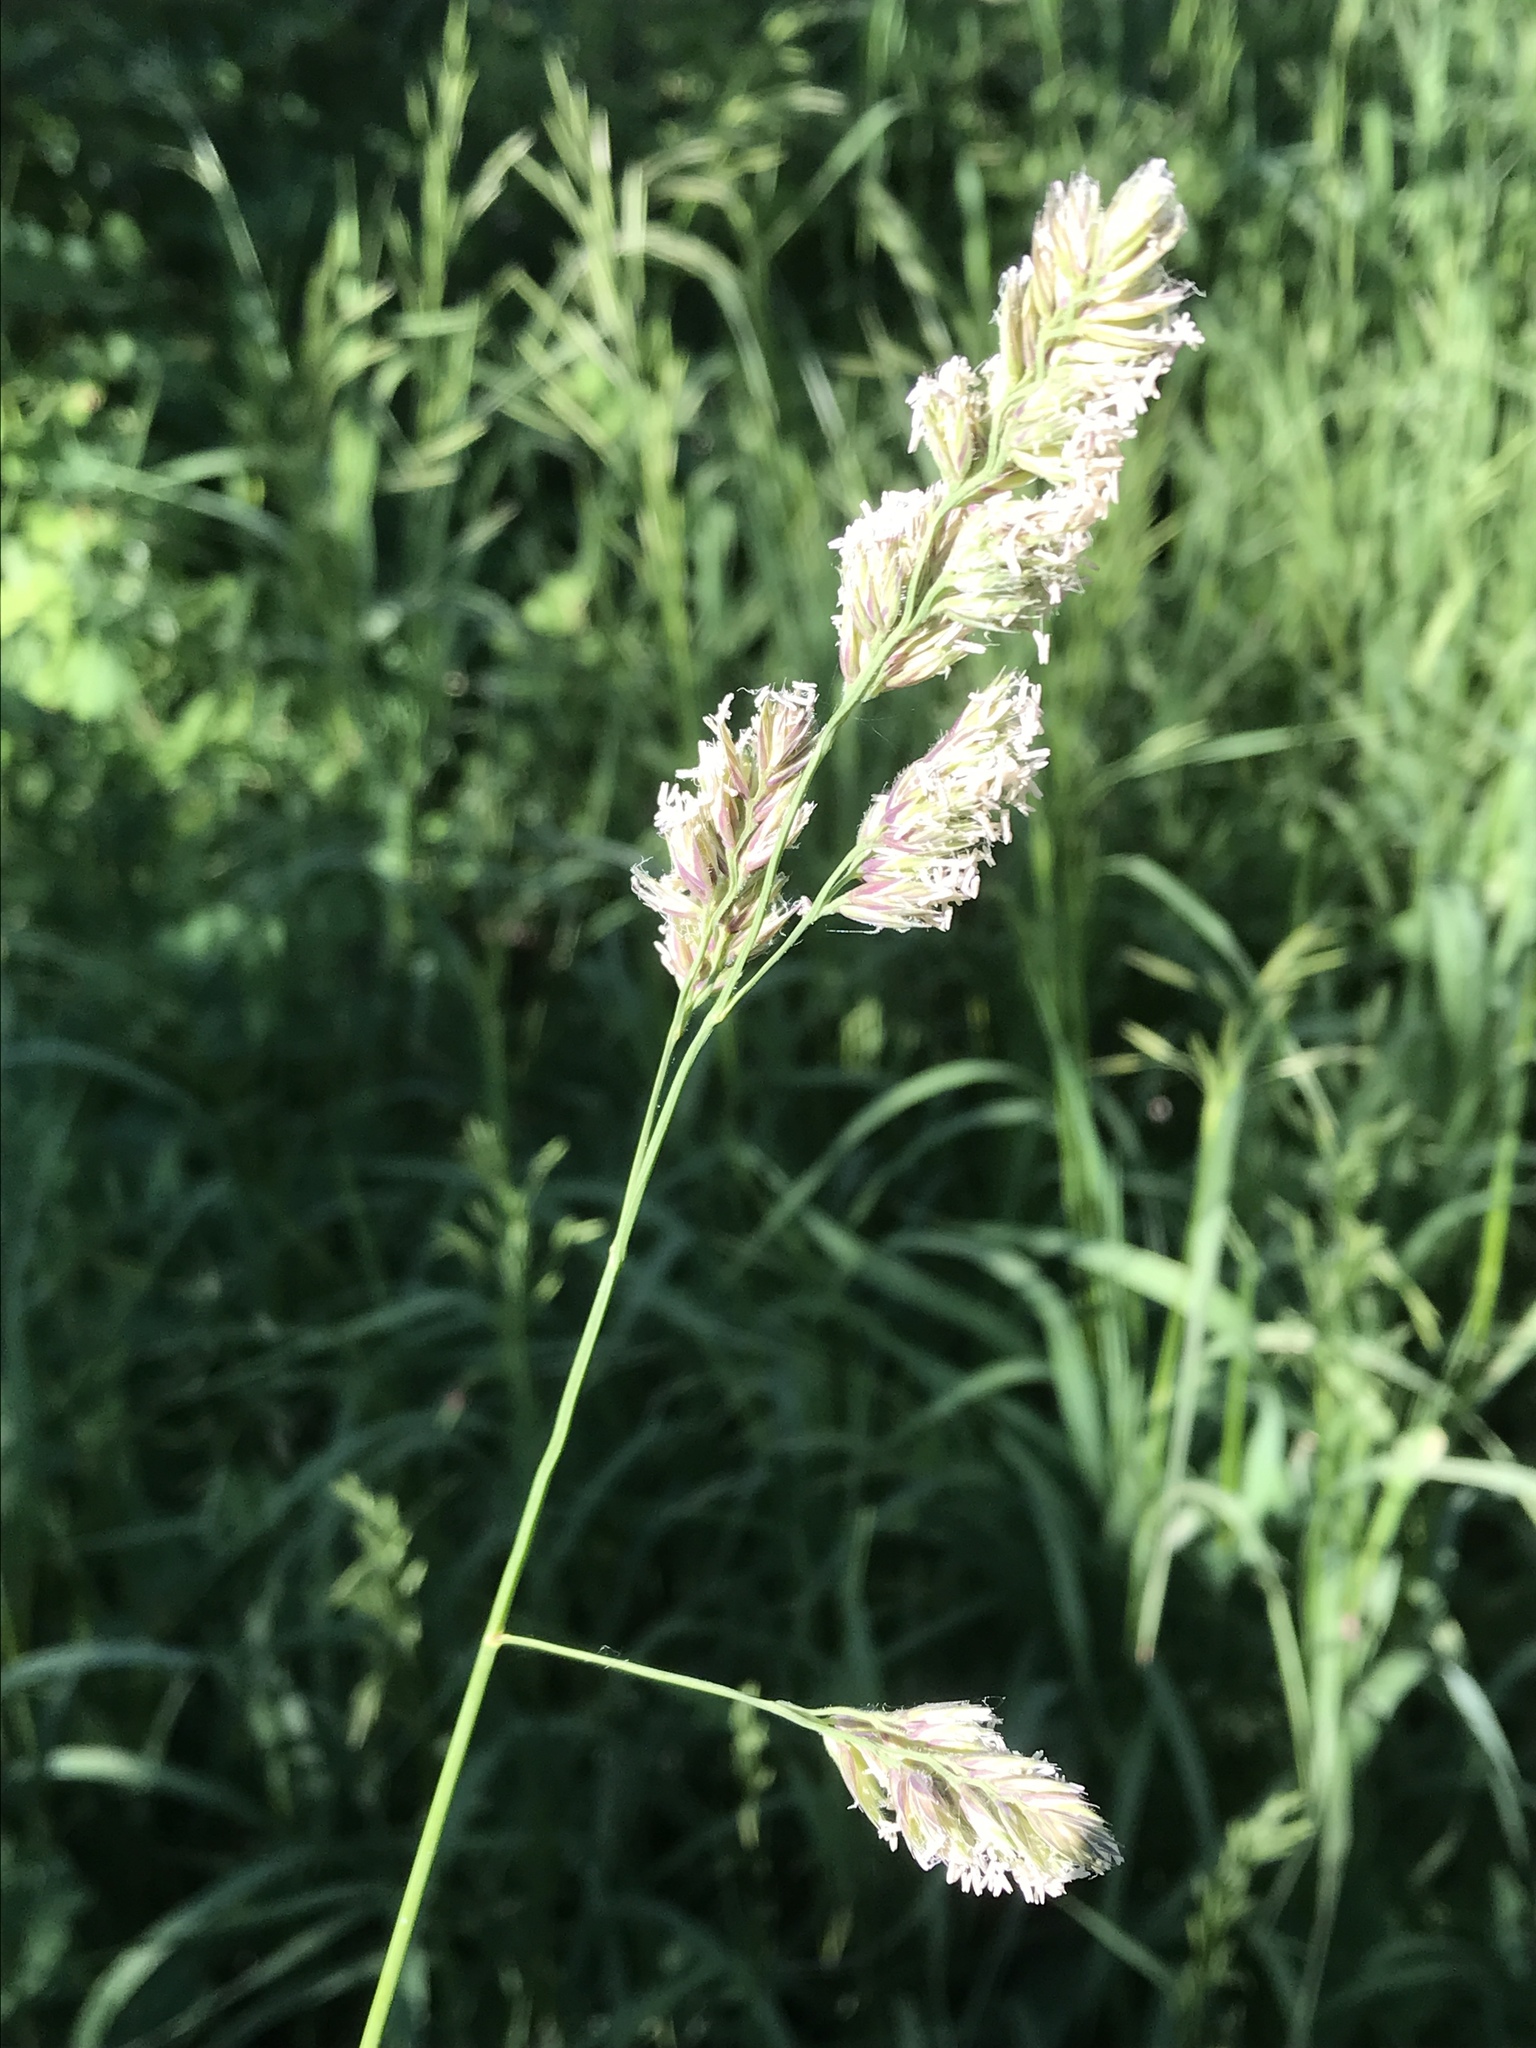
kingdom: Plantae
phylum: Tracheophyta
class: Liliopsida
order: Poales
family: Poaceae
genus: Dactylis
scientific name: Dactylis glomerata
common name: Orchardgrass
